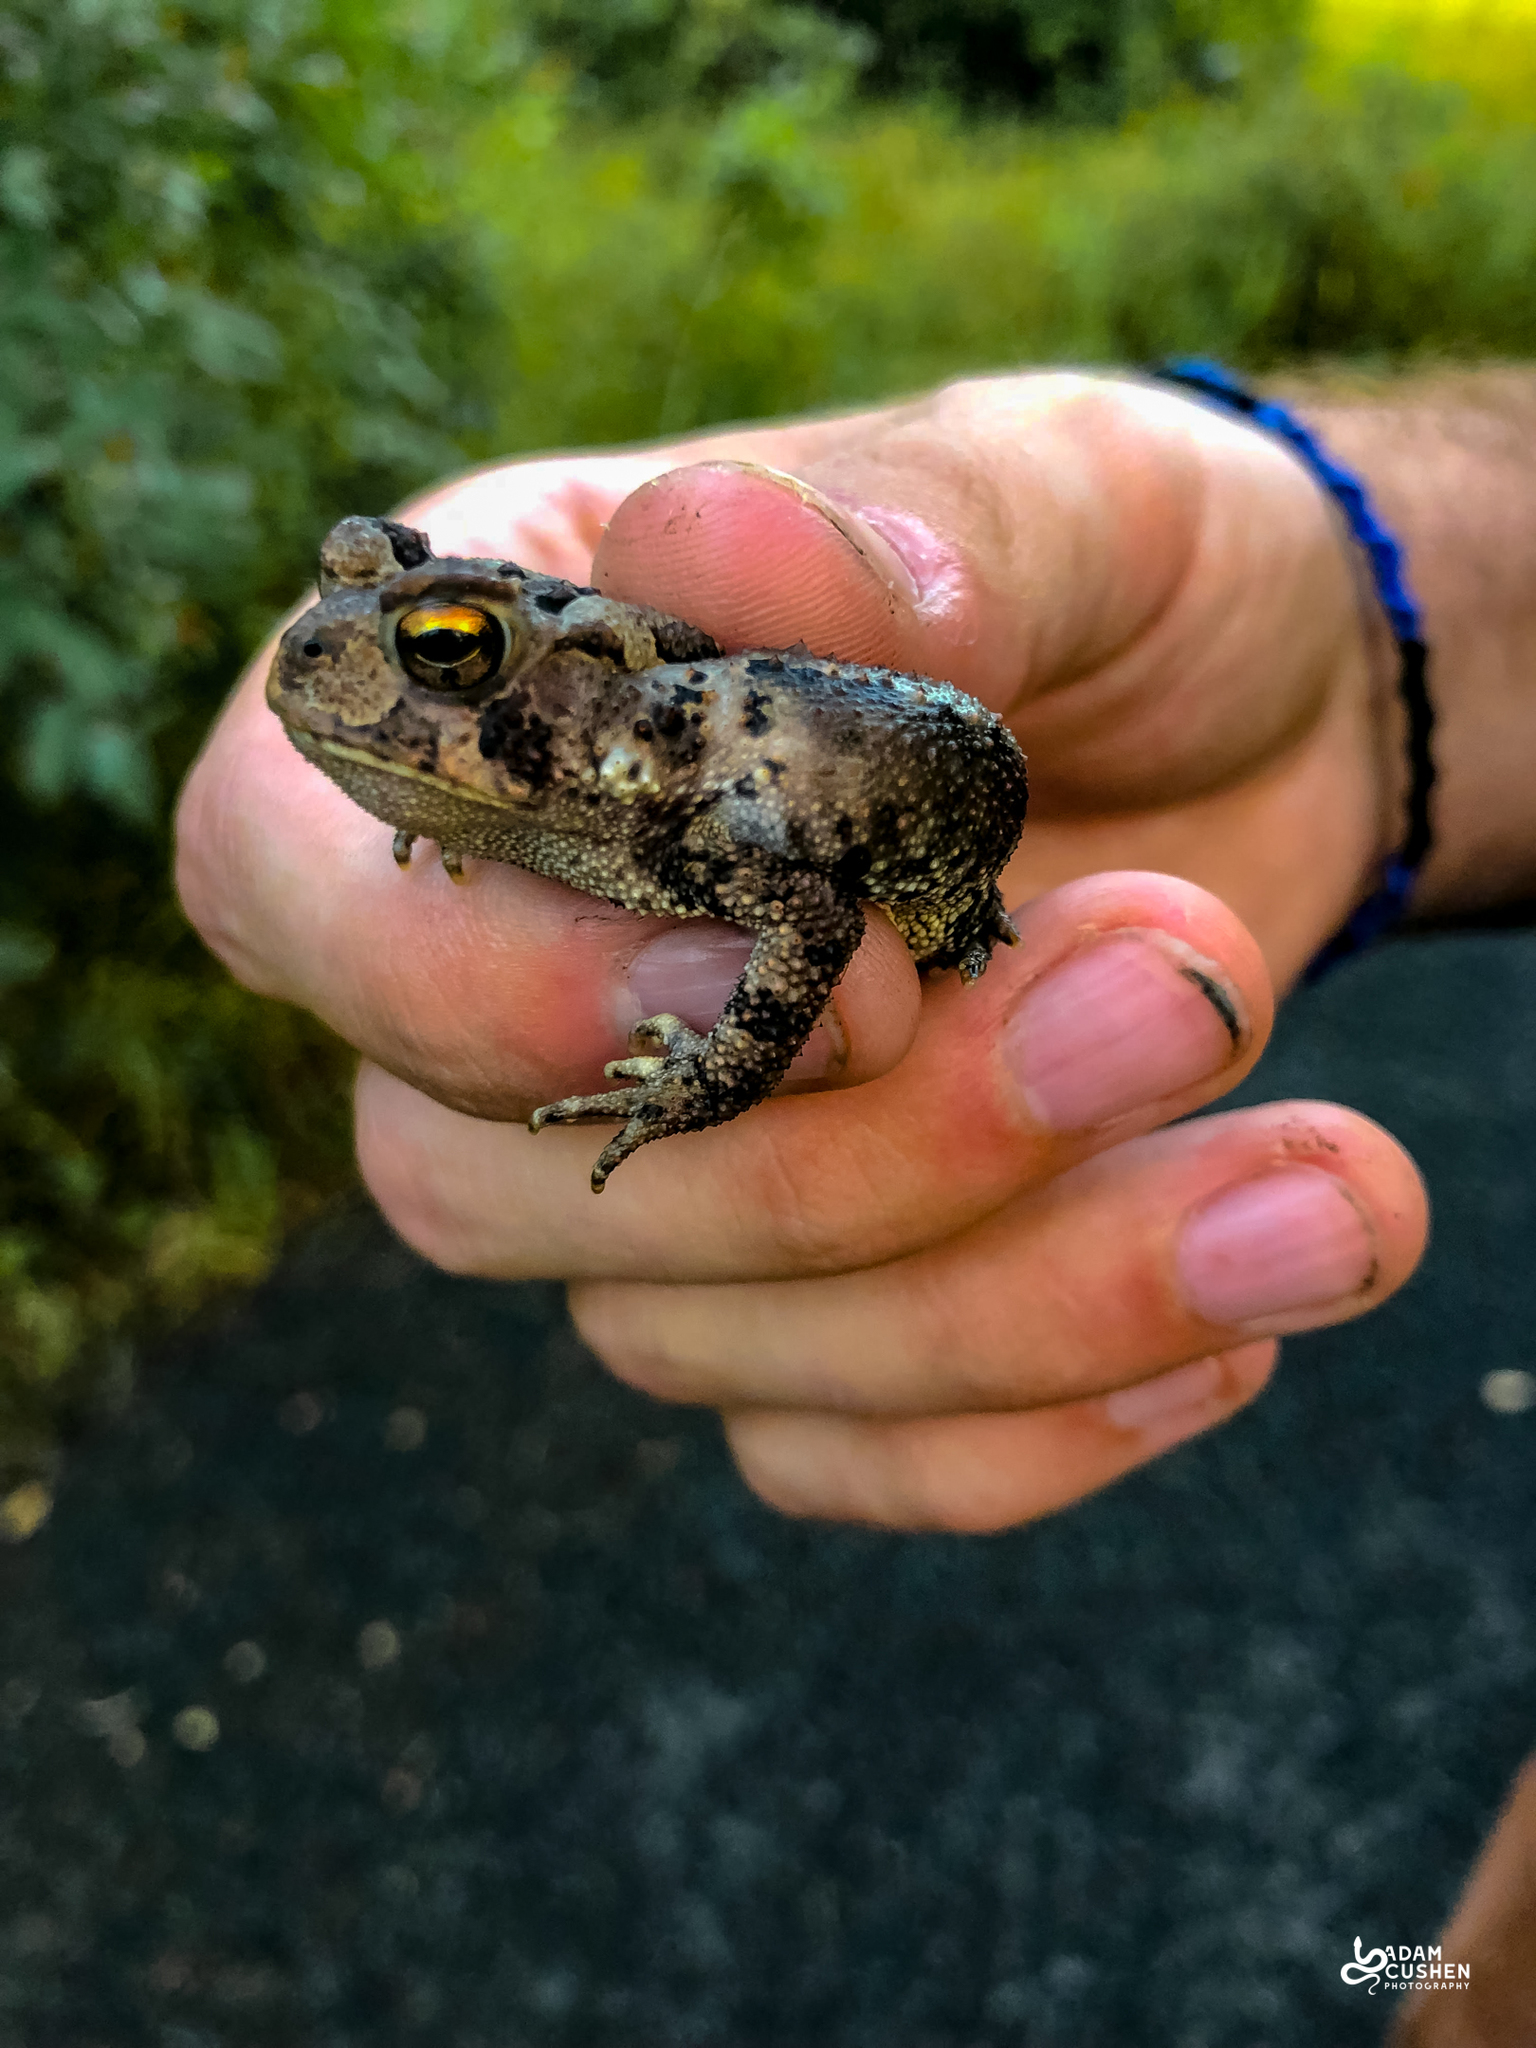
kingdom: Animalia
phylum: Chordata
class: Amphibia
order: Anura
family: Bufonidae
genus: Anaxyrus
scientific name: Anaxyrus americanus
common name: American toad
